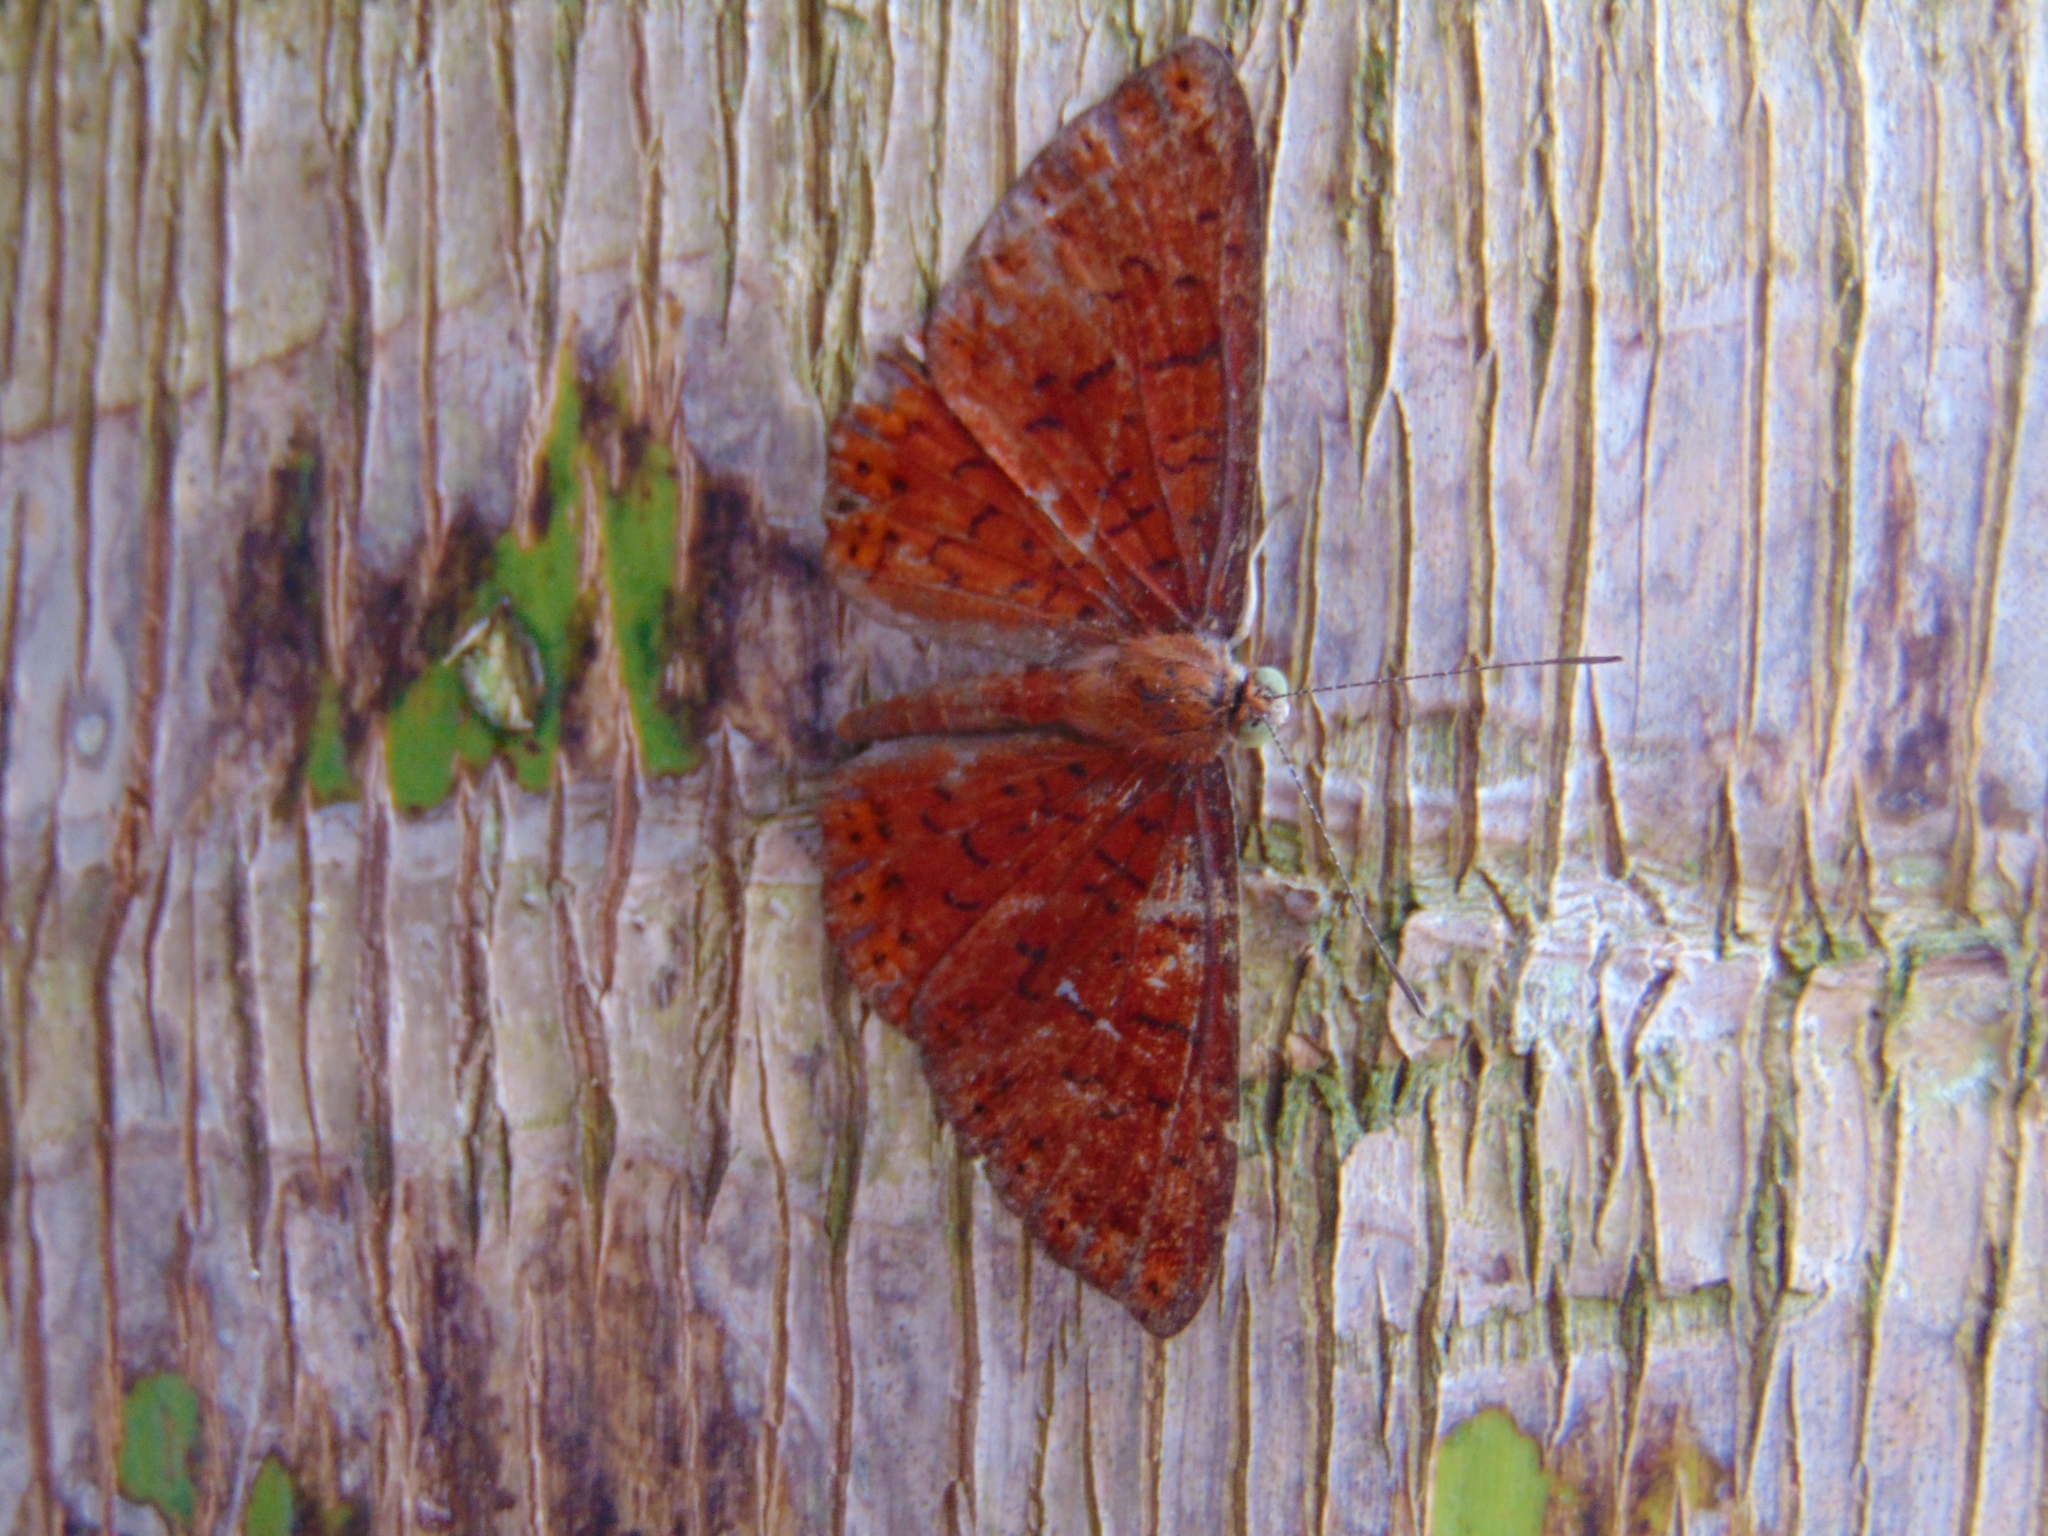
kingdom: Animalia
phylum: Arthropoda
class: Insecta
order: Lepidoptera
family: Riodinidae
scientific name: Riodinidae
